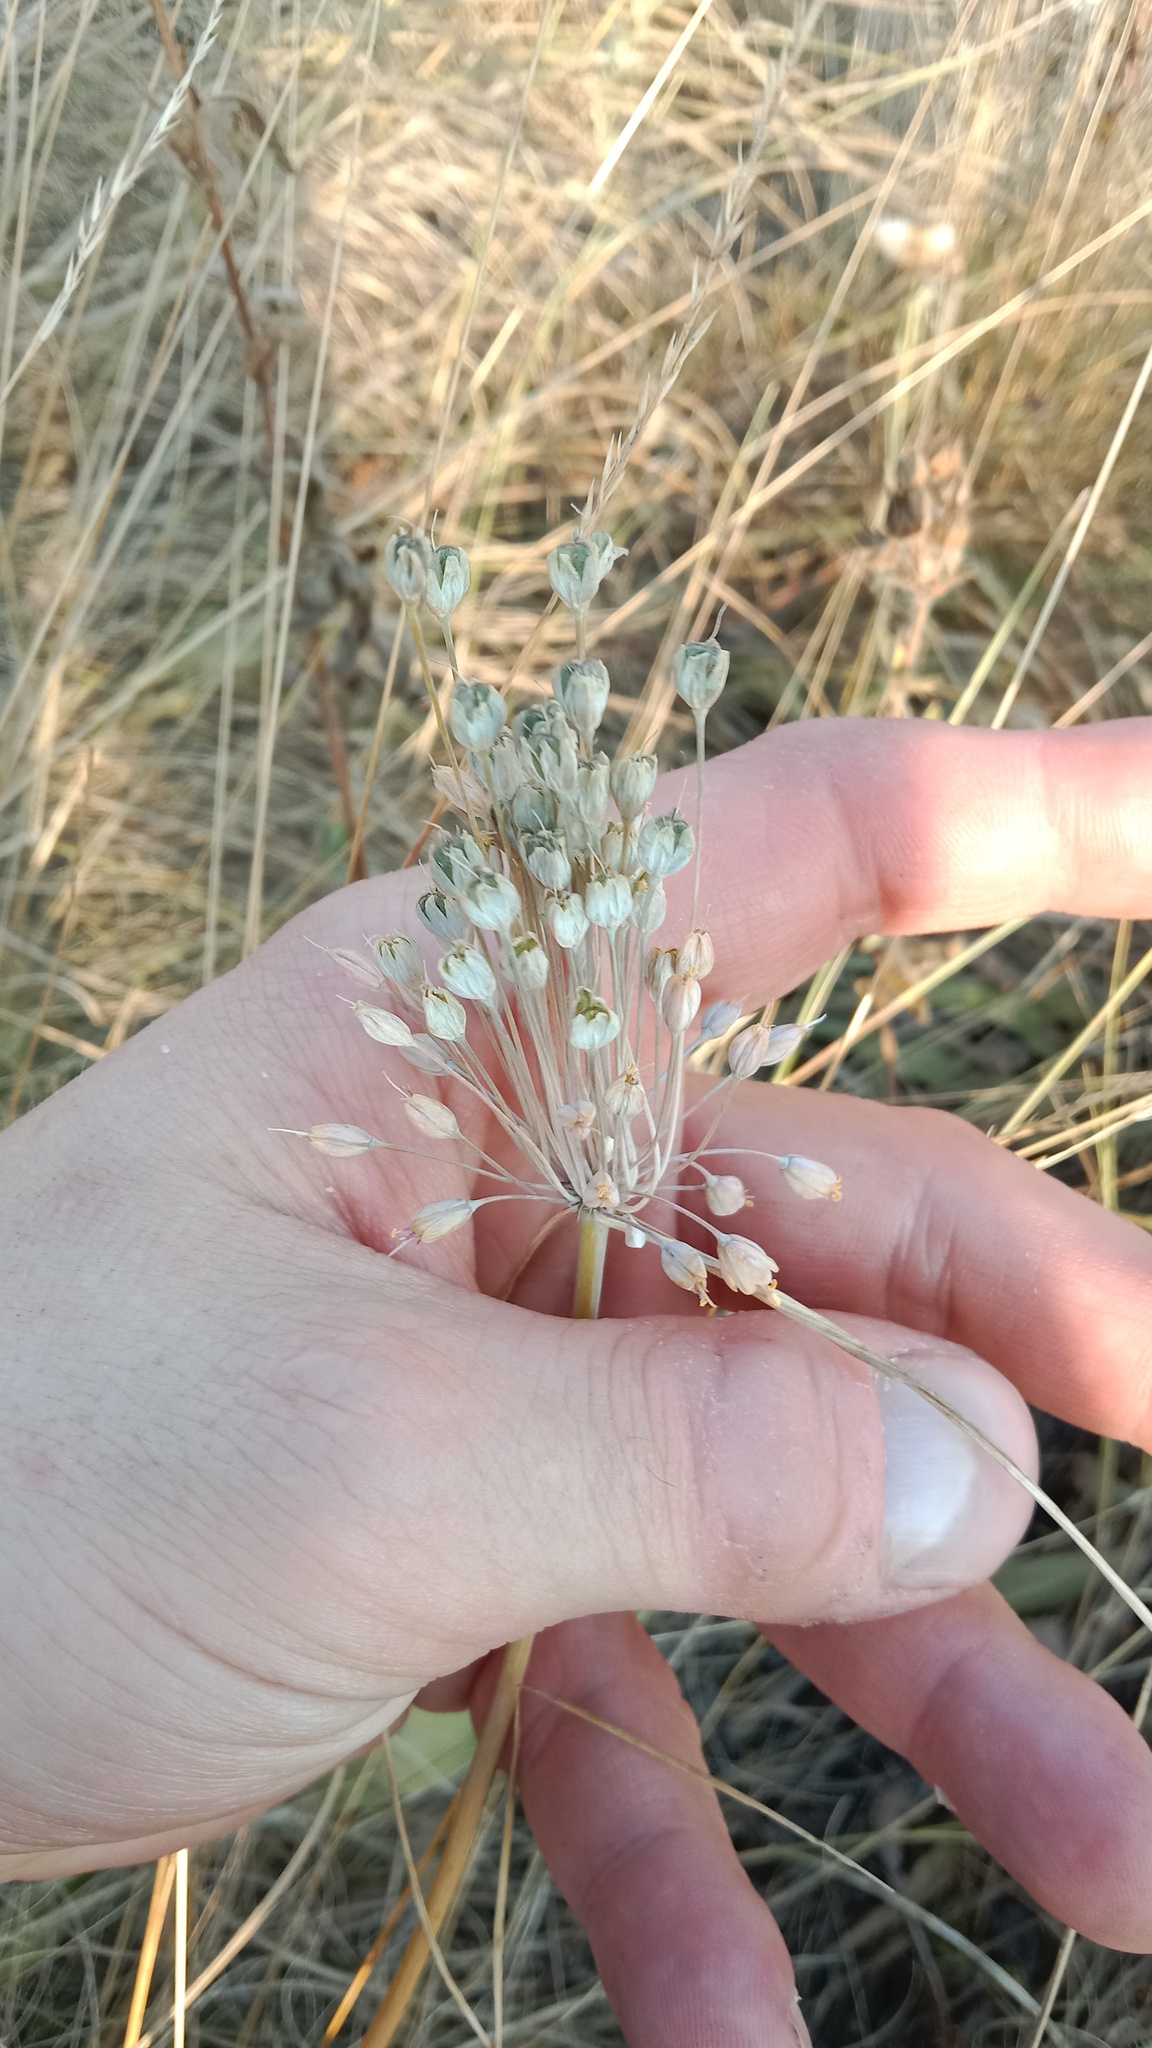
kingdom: Plantae
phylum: Tracheophyta
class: Liliopsida
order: Asparagales
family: Amaryllidaceae
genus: Allium
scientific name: Allium flavum
